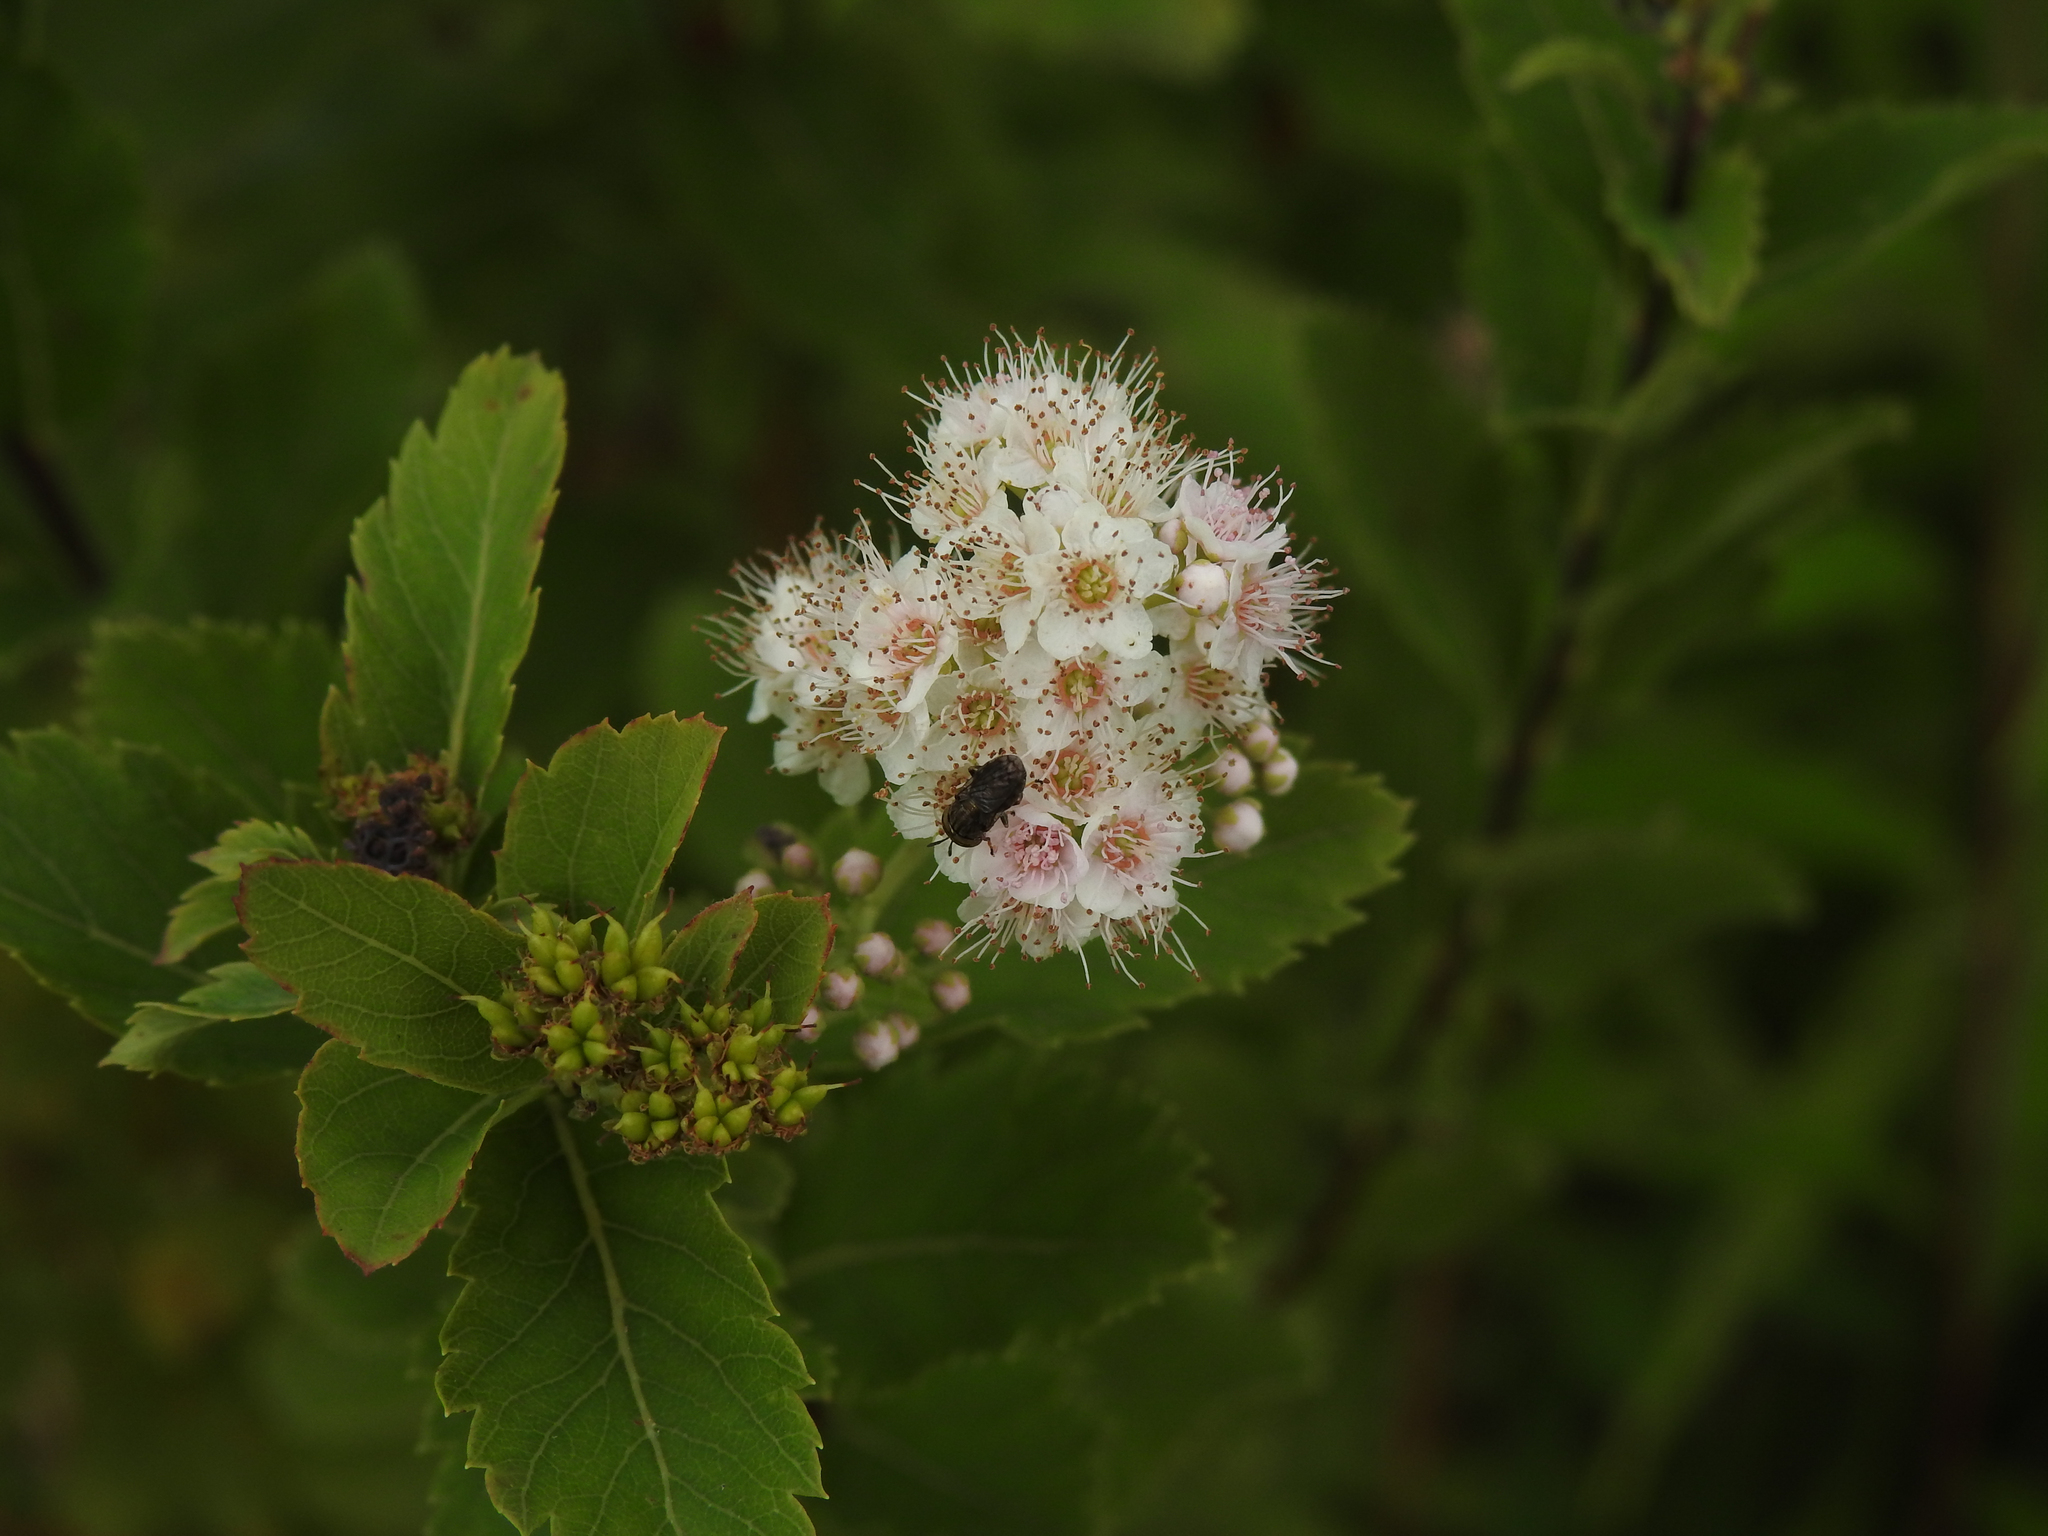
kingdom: Plantae
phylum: Tracheophyta
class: Magnoliopsida
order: Rosales
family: Rosaceae
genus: Spiraea
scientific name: Spiraea alba
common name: Pale bridewort
